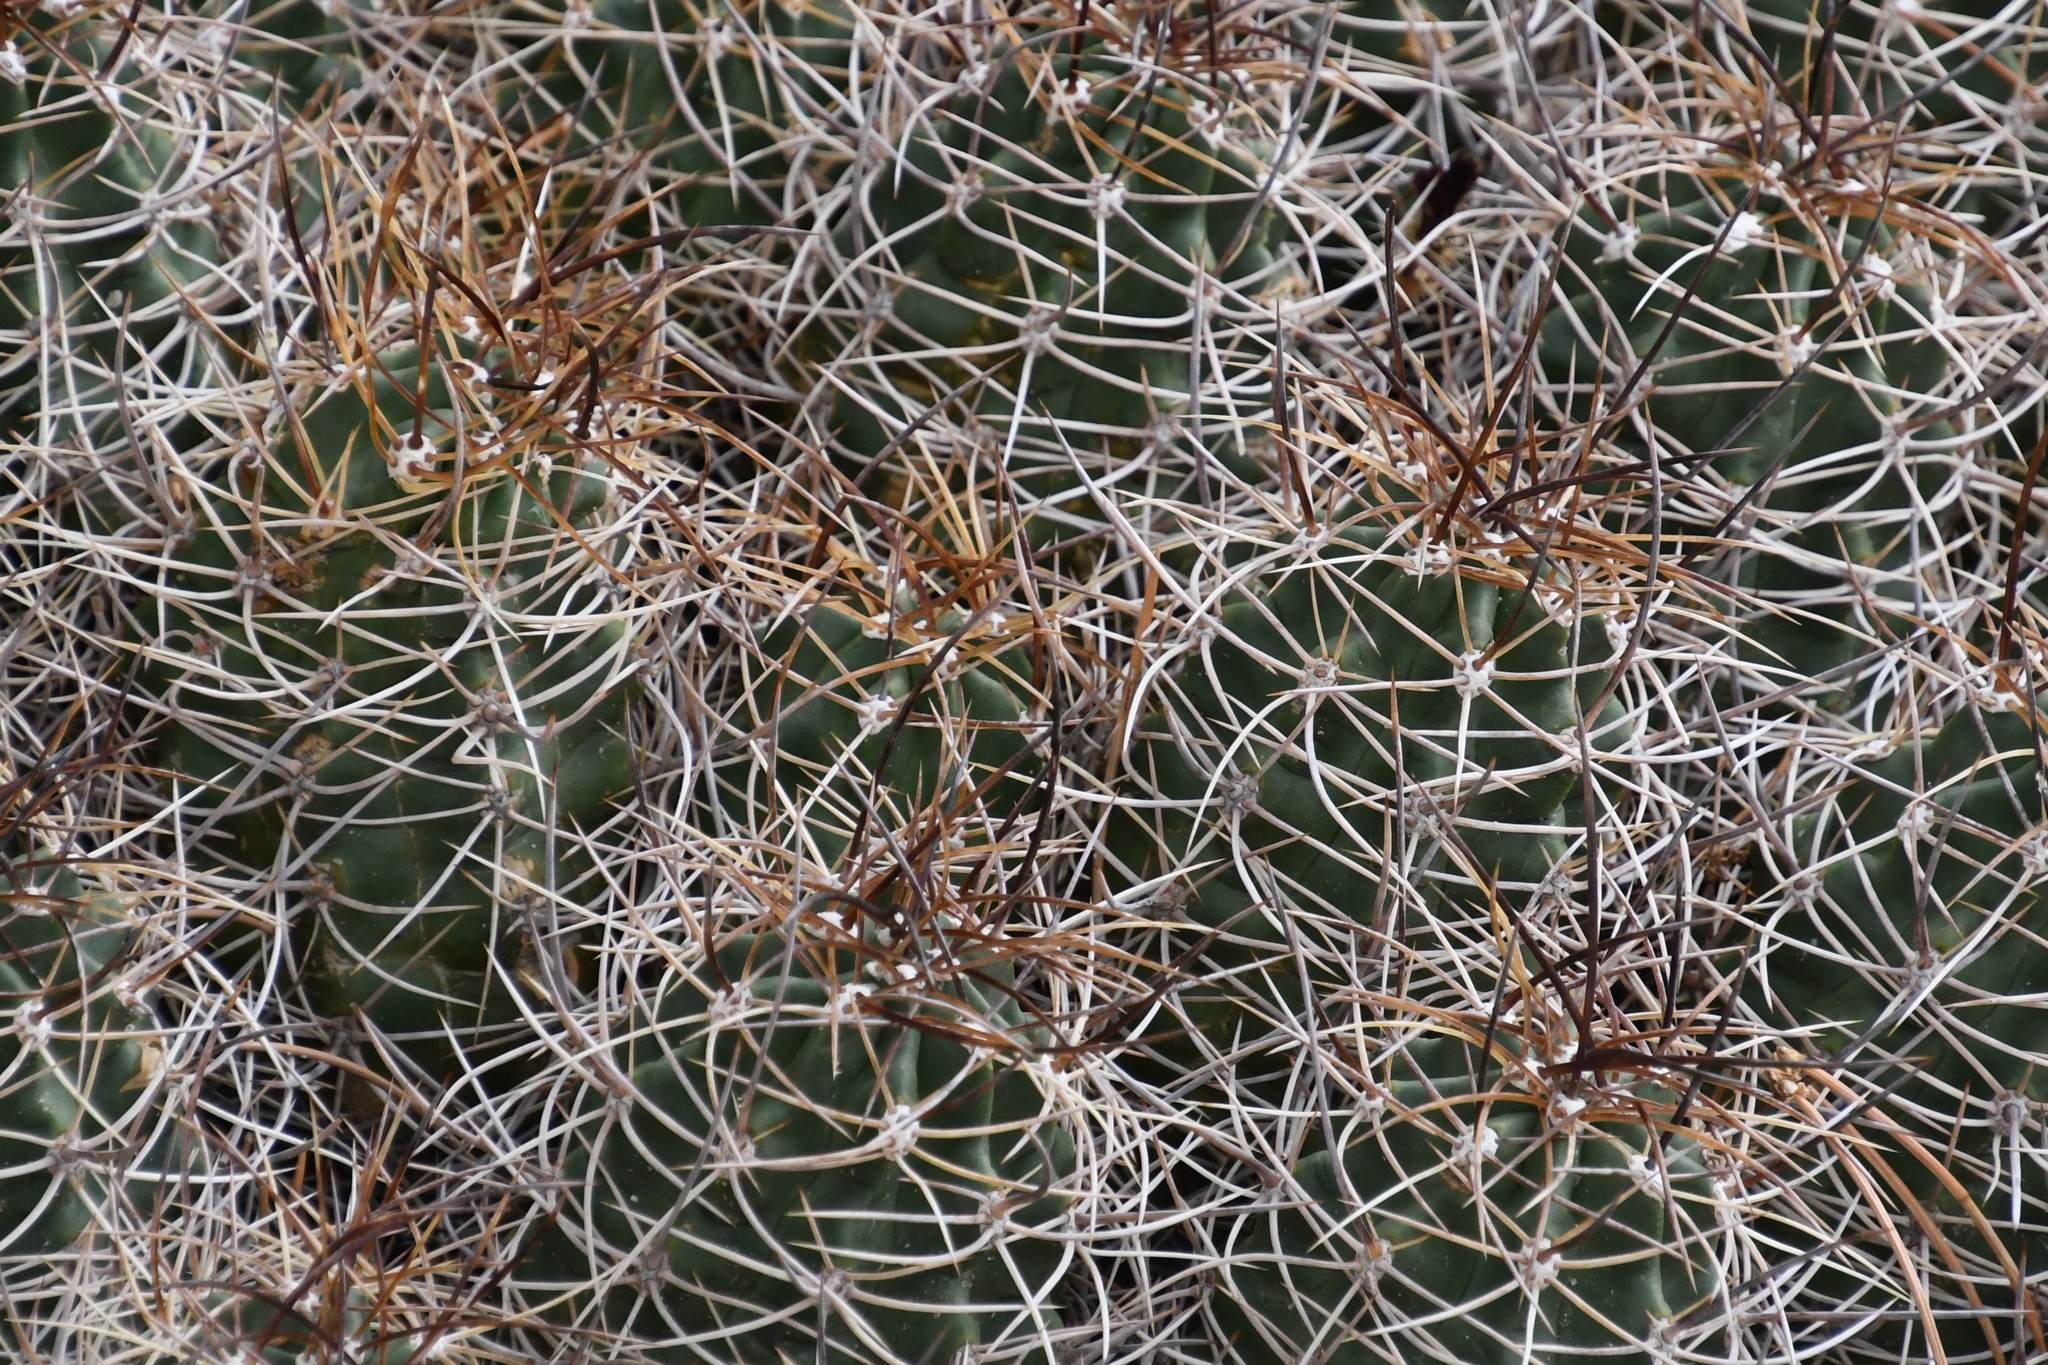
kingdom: Plantae
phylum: Tracheophyta
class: Magnoliopsida
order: Caryophyllales
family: Cactaceae
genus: Echinocereus
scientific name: Echinocereus triglochidiatus
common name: Claretcup hedgehog
